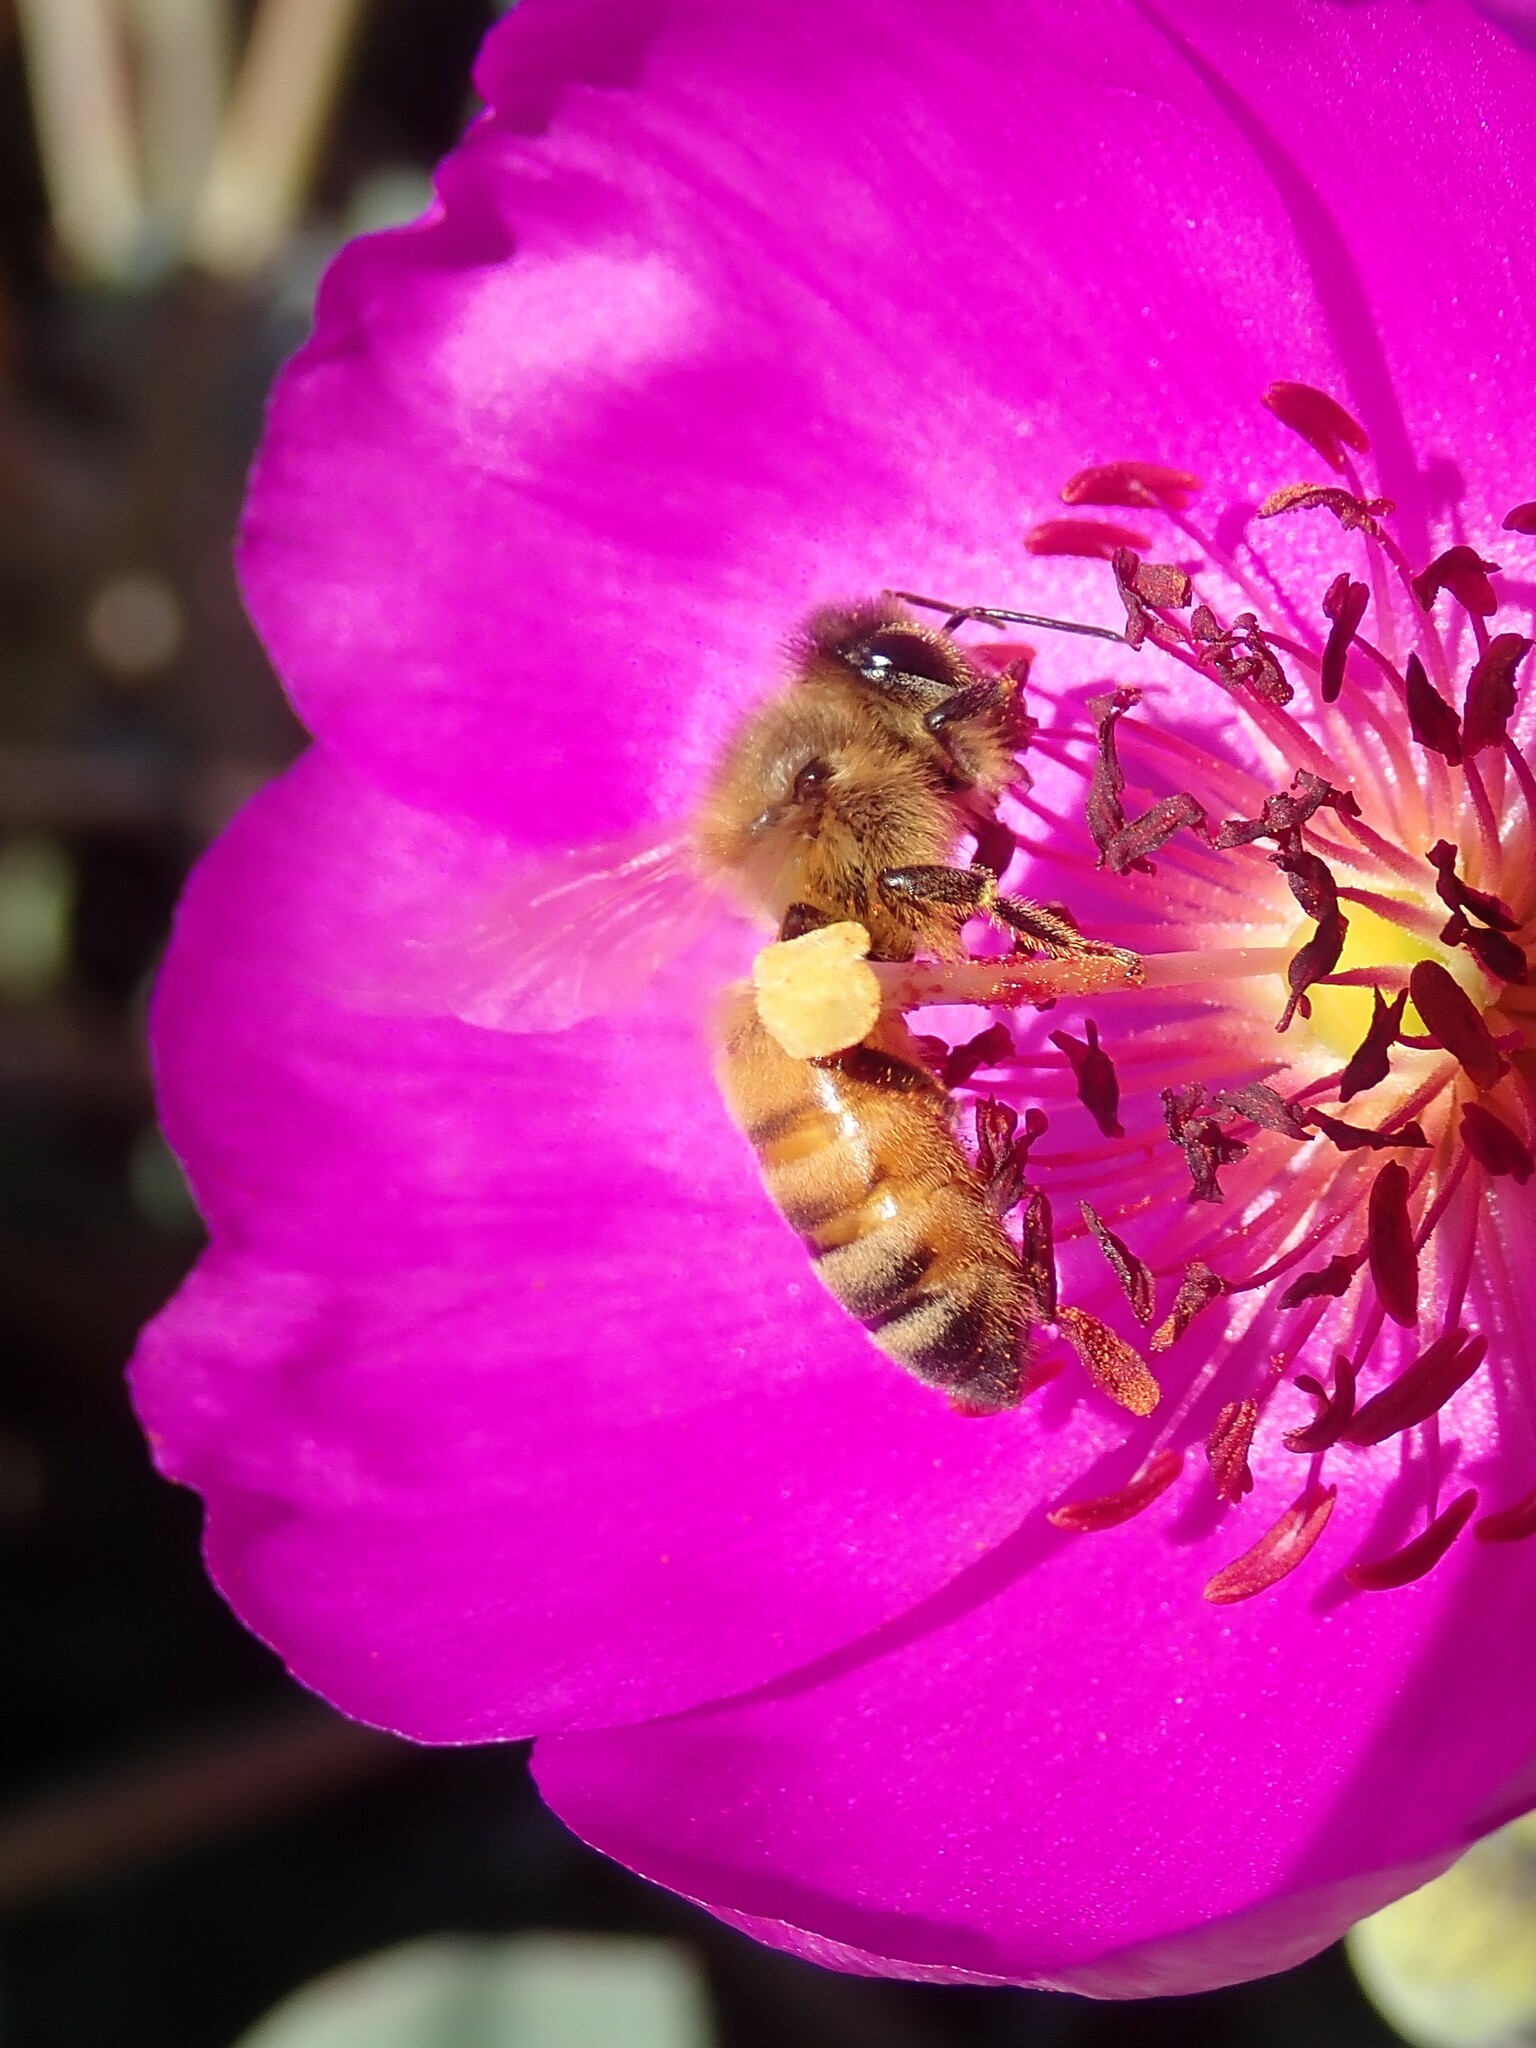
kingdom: Animalia
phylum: Arthropoda
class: Insecta
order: Hymenoptera
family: Apidae
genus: Apis
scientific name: Apis mellifera
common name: Honey bee
